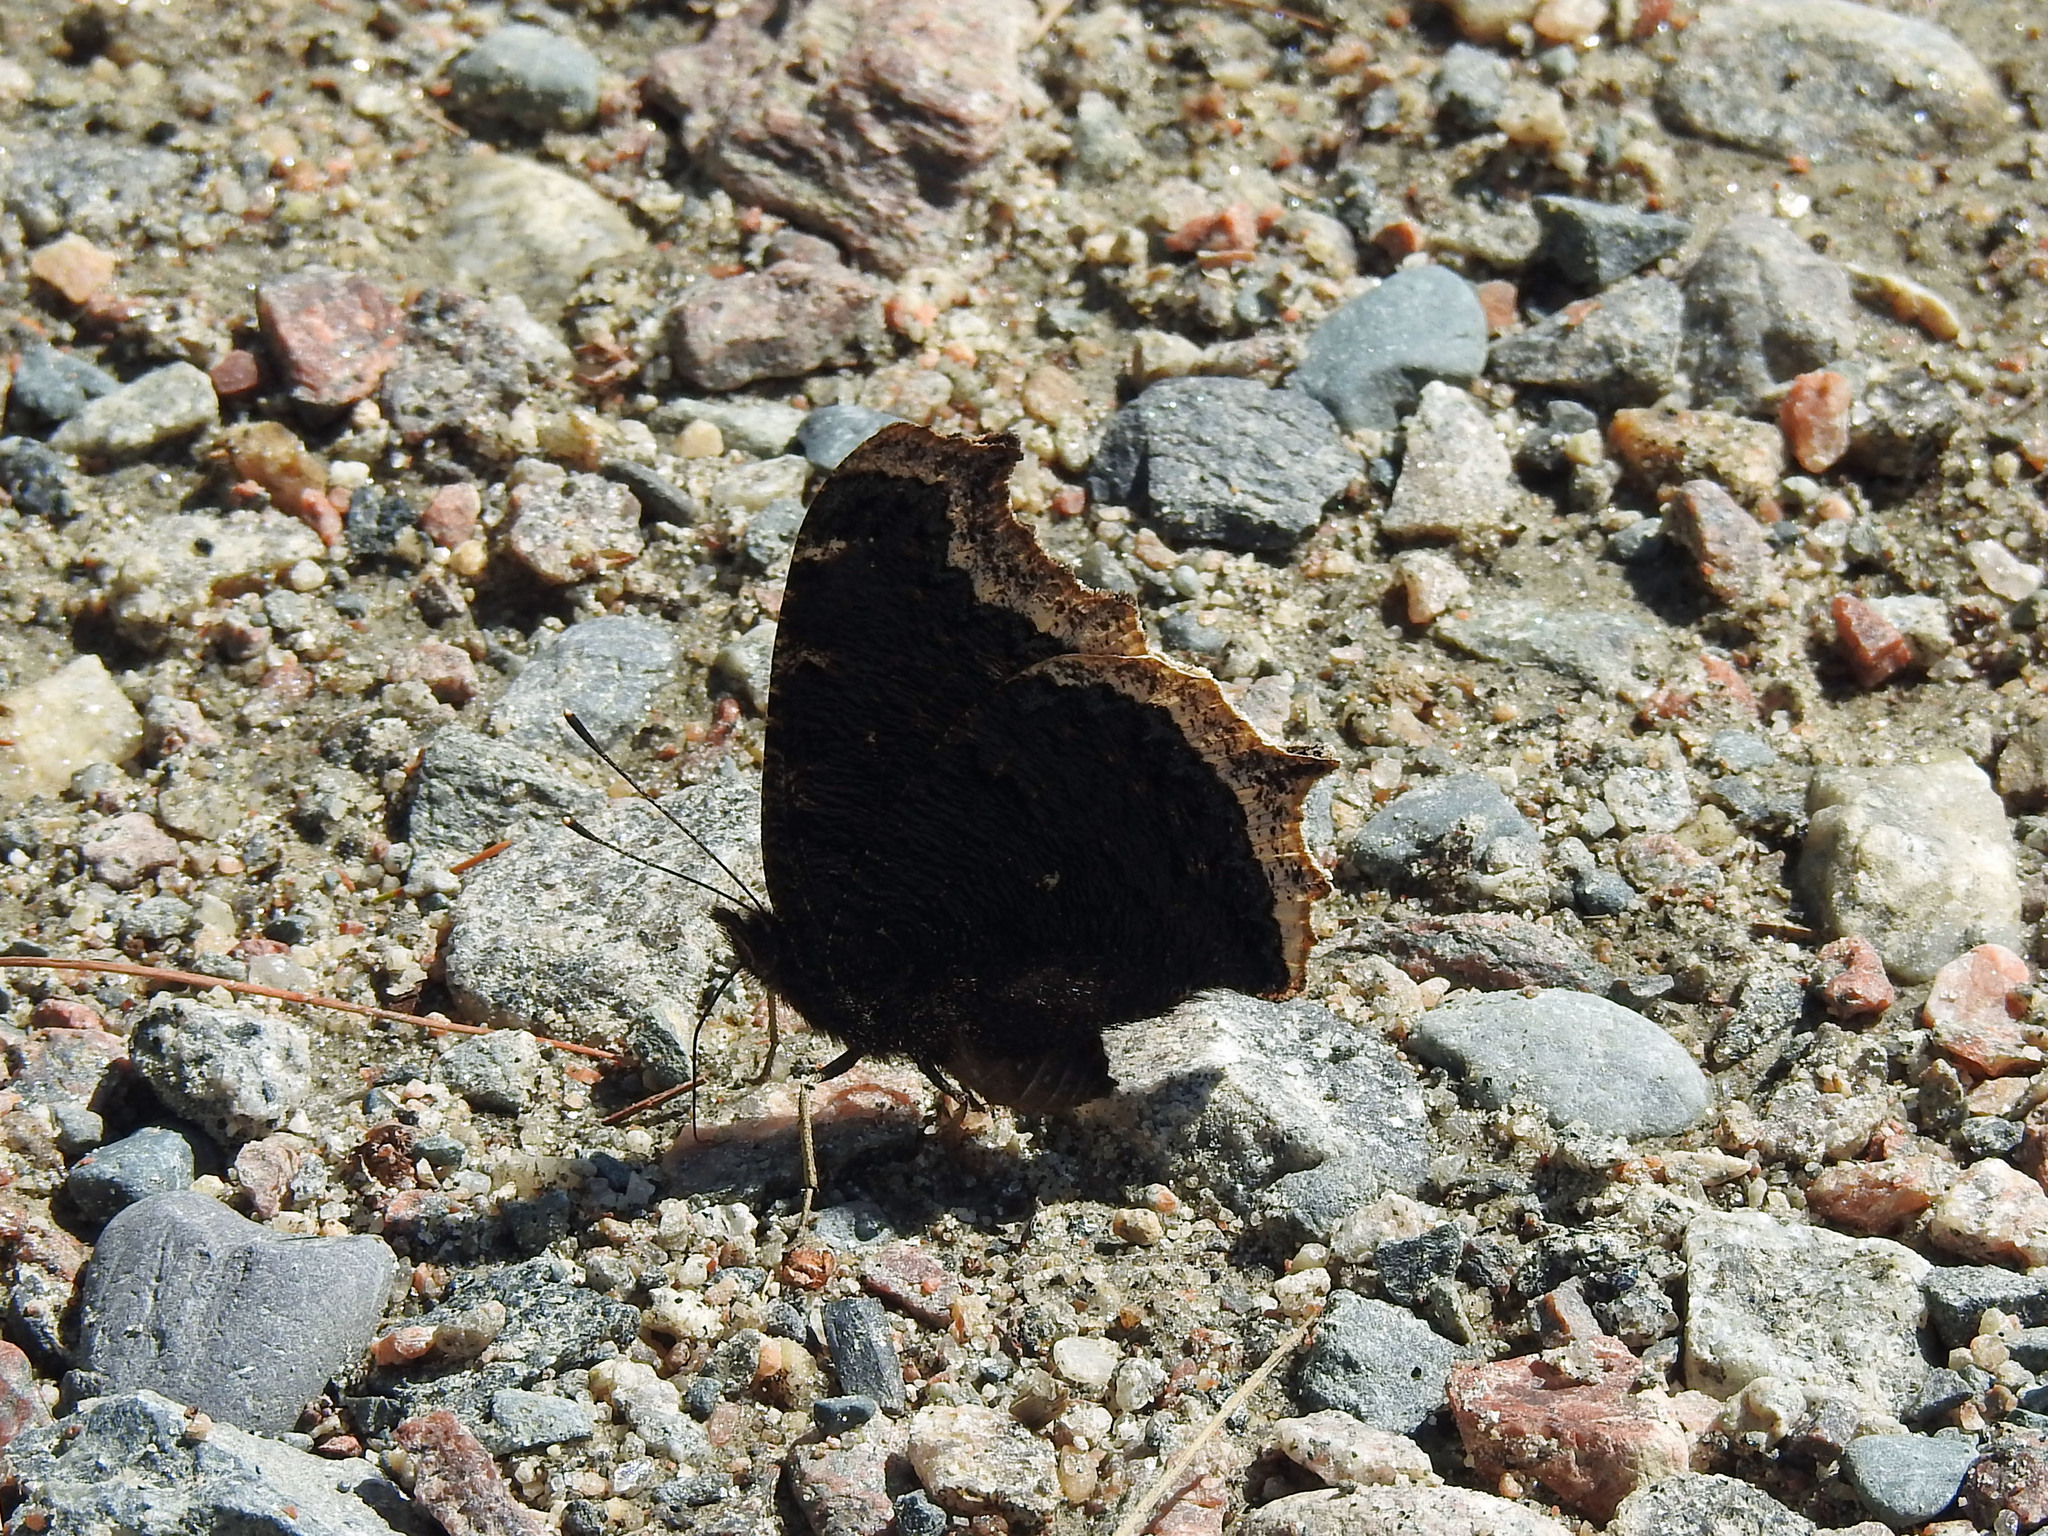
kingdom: Animalia
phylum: Arthropoda
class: Insecta
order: Lepidoptera
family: Nymphalidae
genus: Nymphalis
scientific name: Nymphalis antiopa
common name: Camberwell beauty
